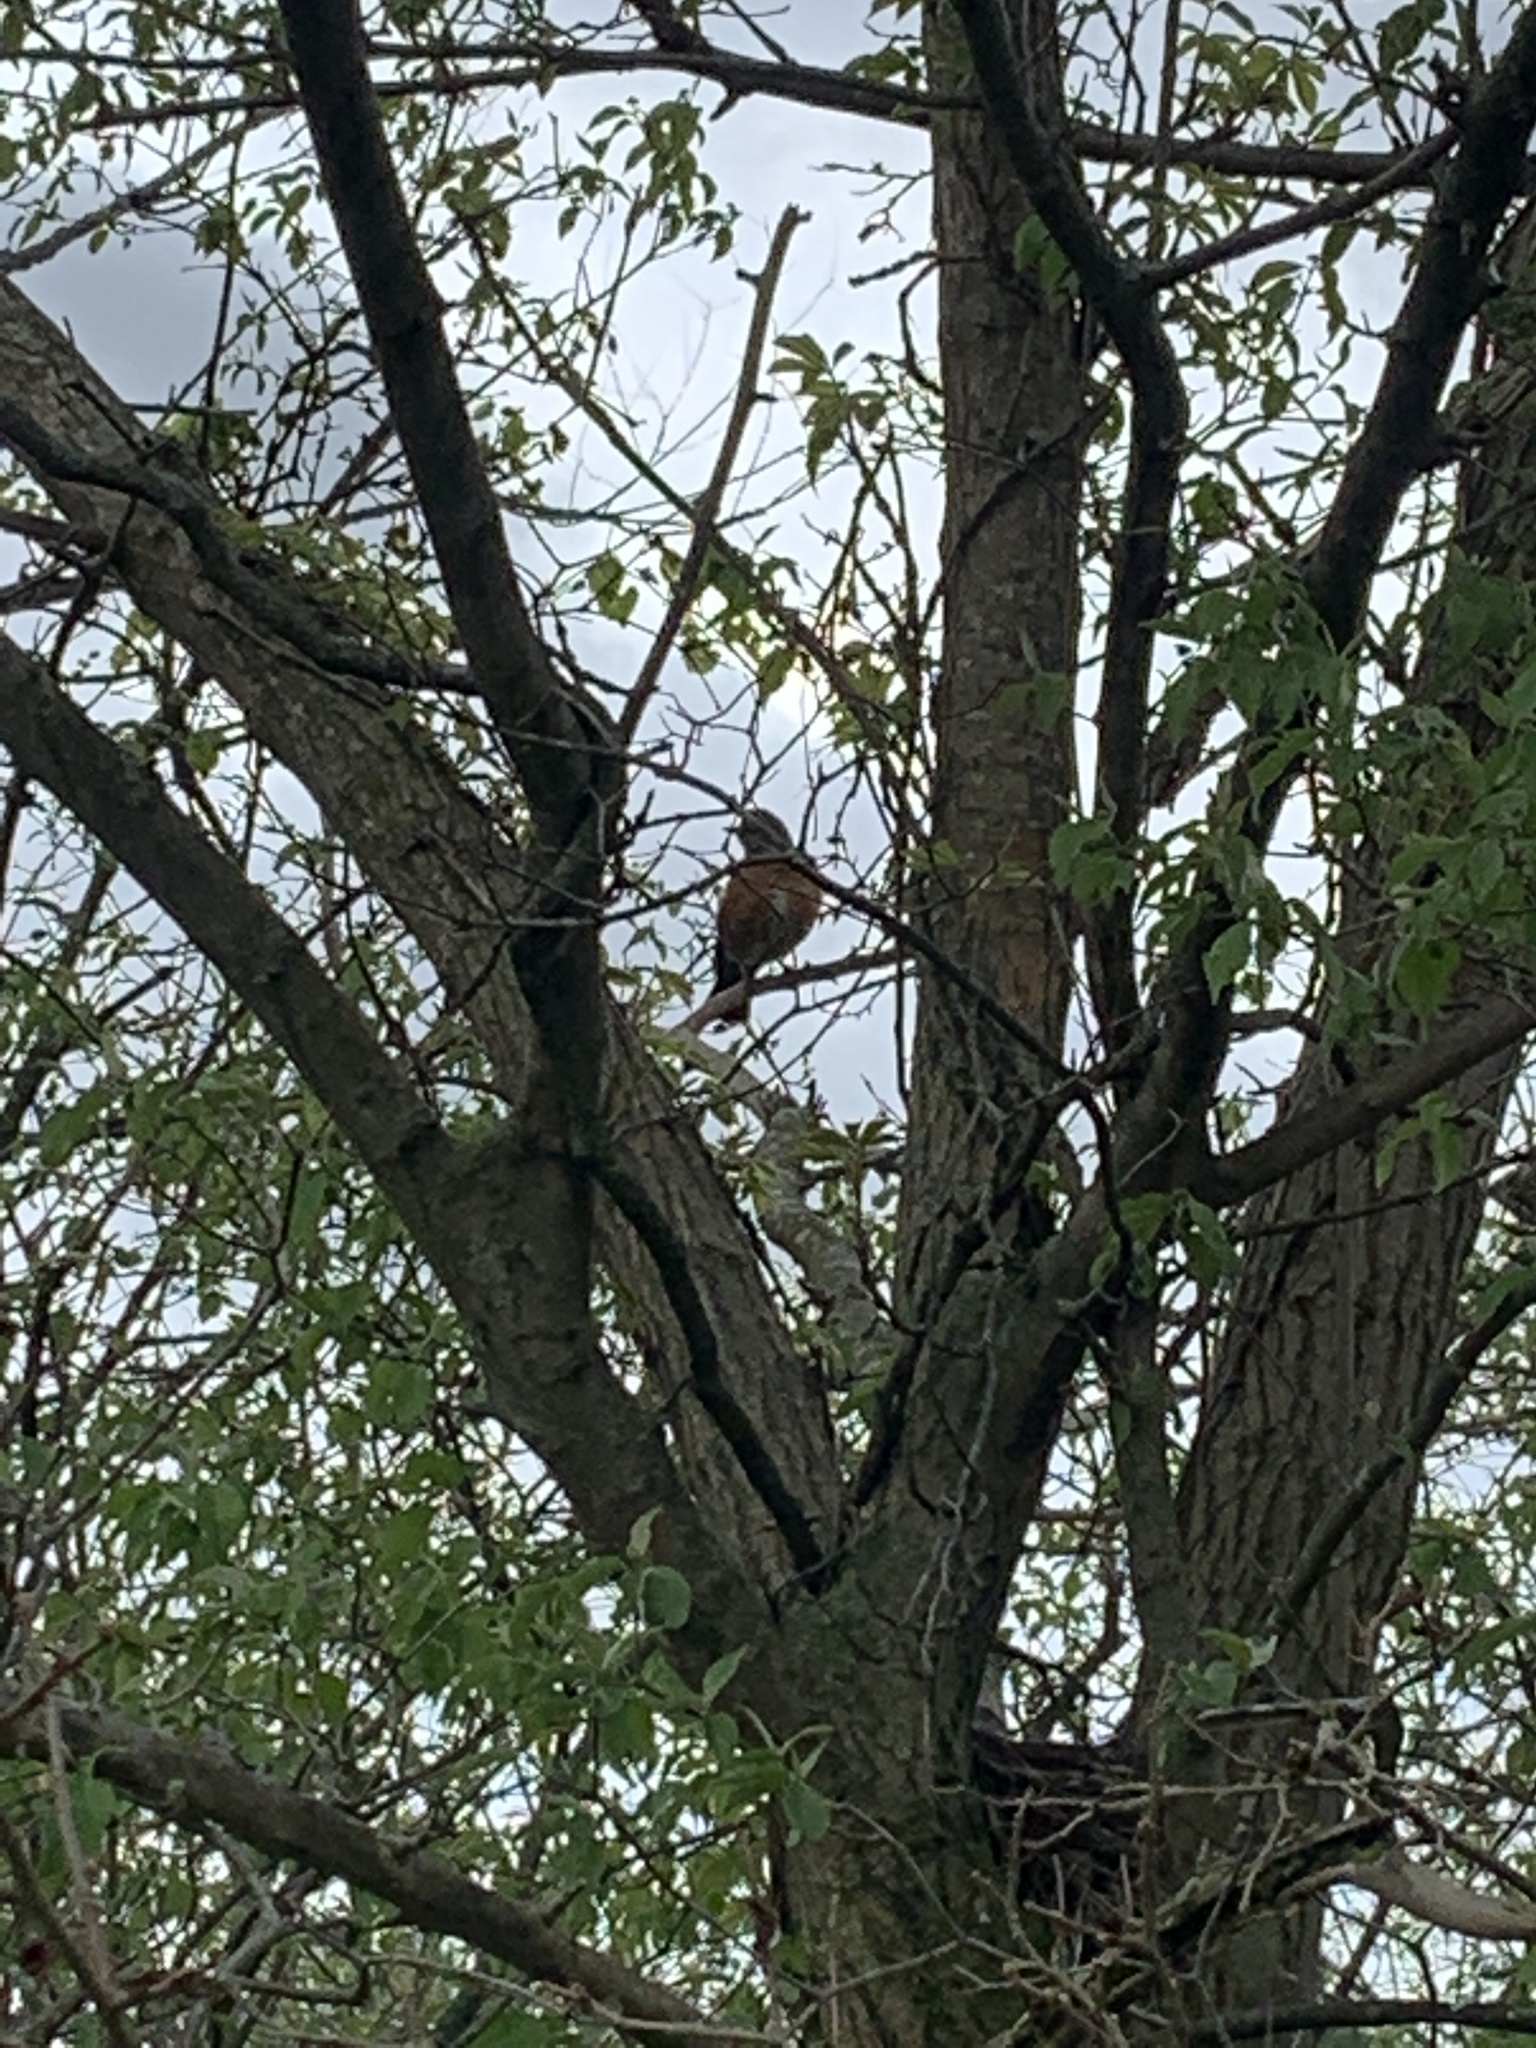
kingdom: Animalia
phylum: Chordata
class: Aves
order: Passeriformes
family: Turdidae
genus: Turdus
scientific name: Turdus migratorius
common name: American robin
